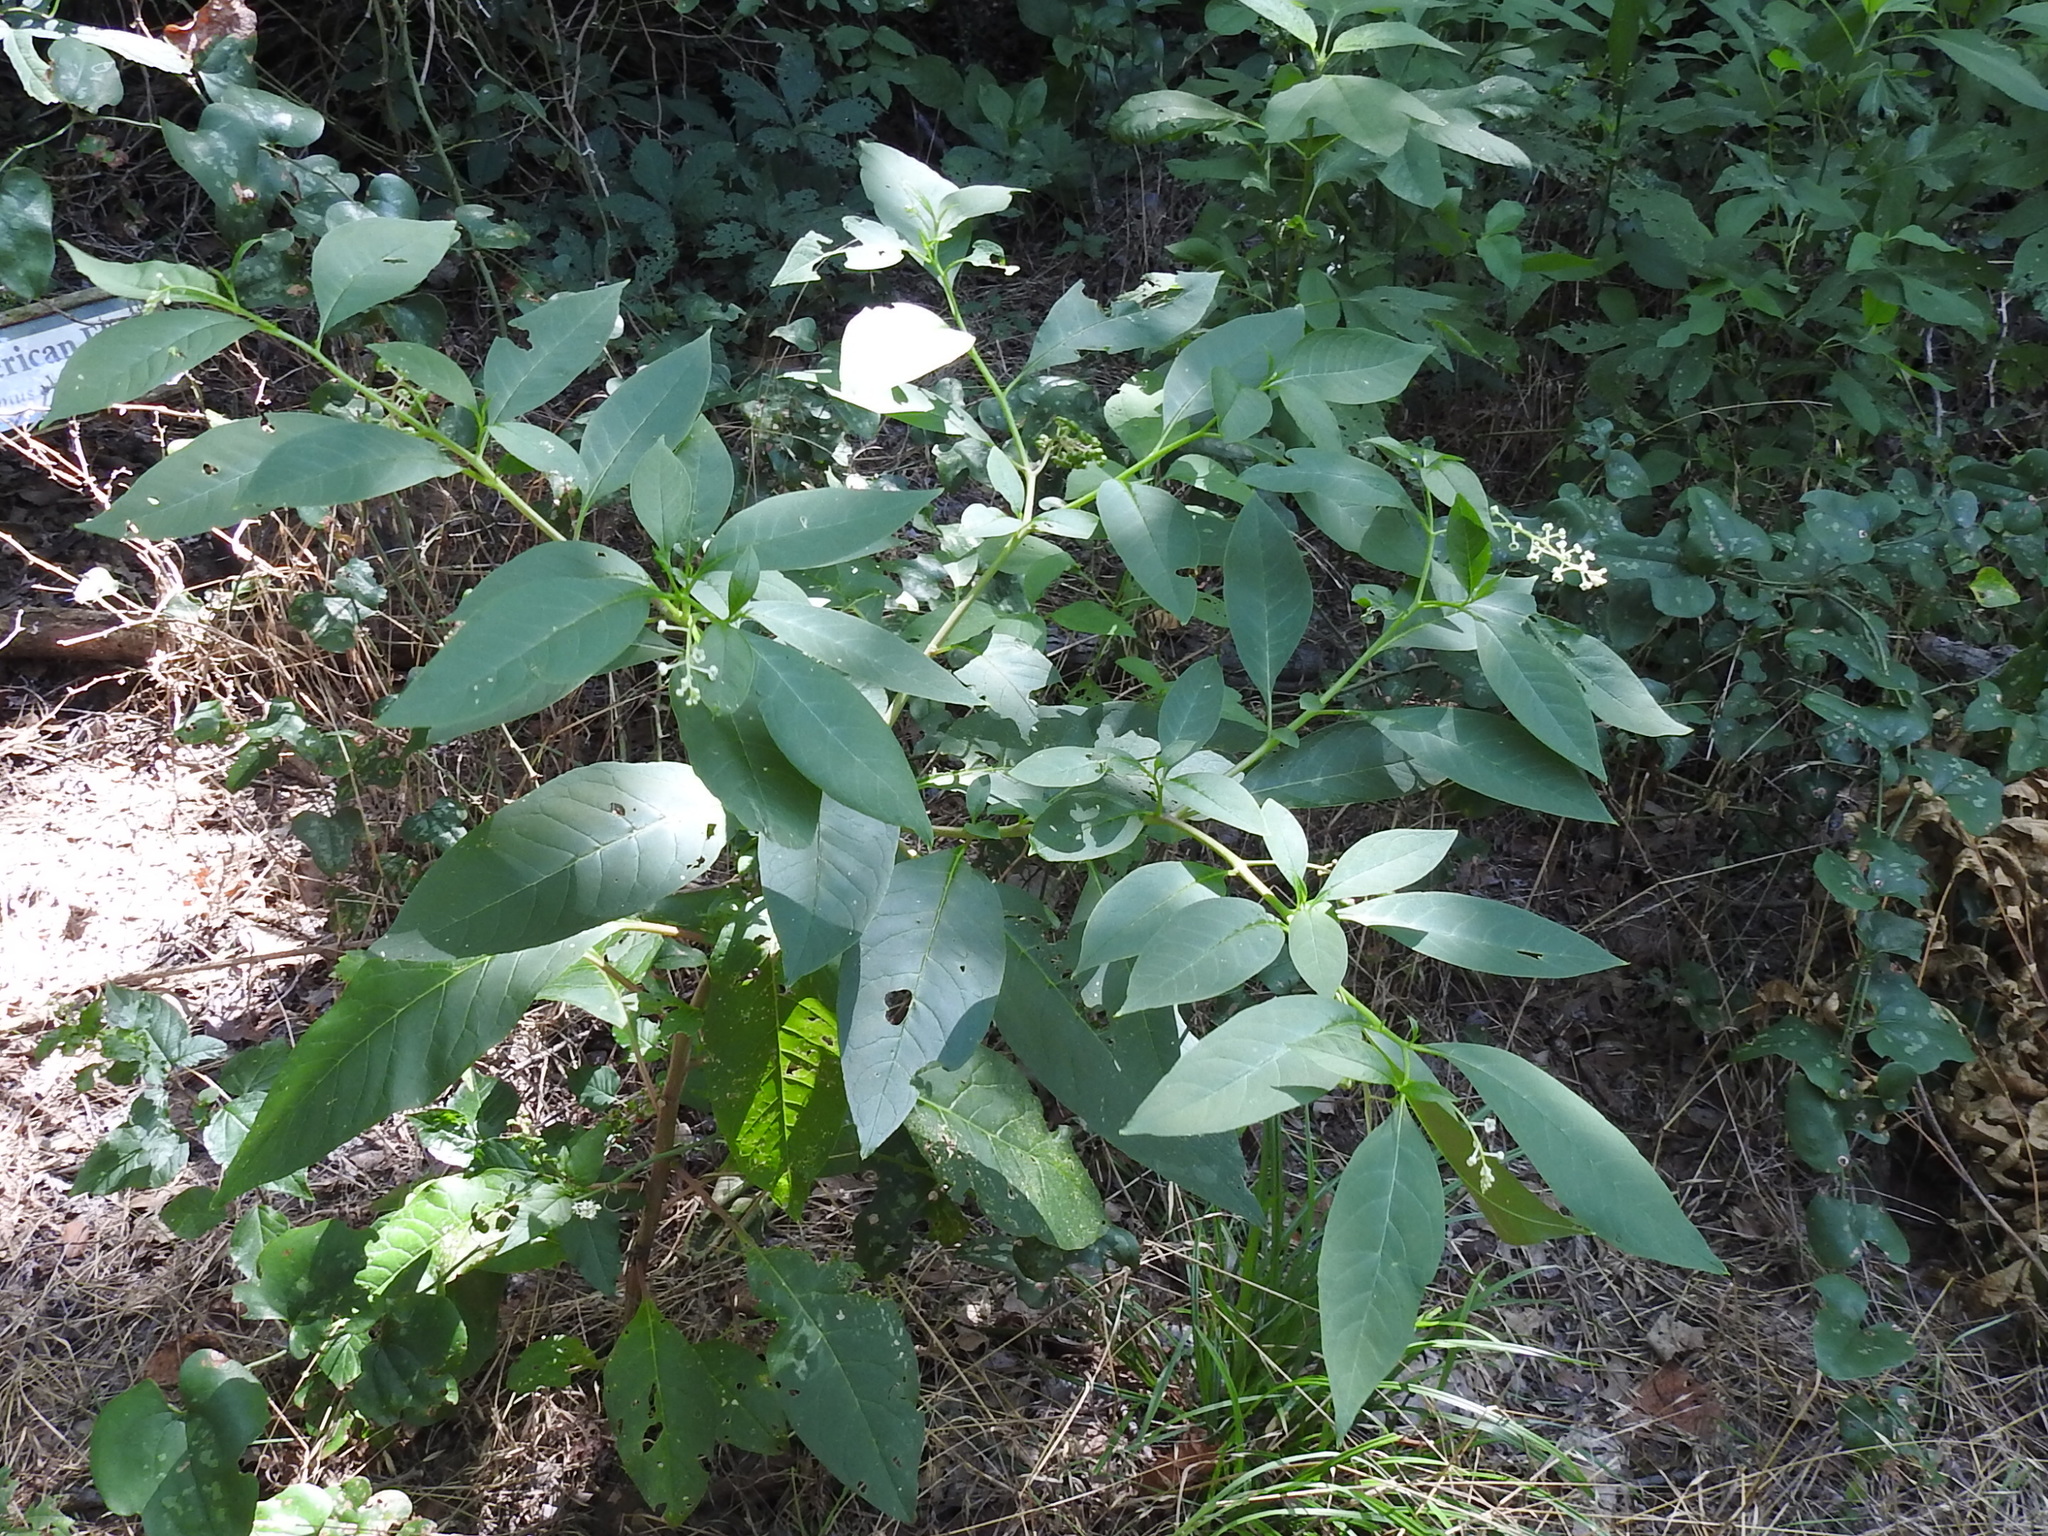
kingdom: Plantae
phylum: Tracheophyta
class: Magnoliopsida
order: Caryophyllales
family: Phytolaccaceae
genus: Phytolacca
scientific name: Phytolacca americana
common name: American pokeweed
